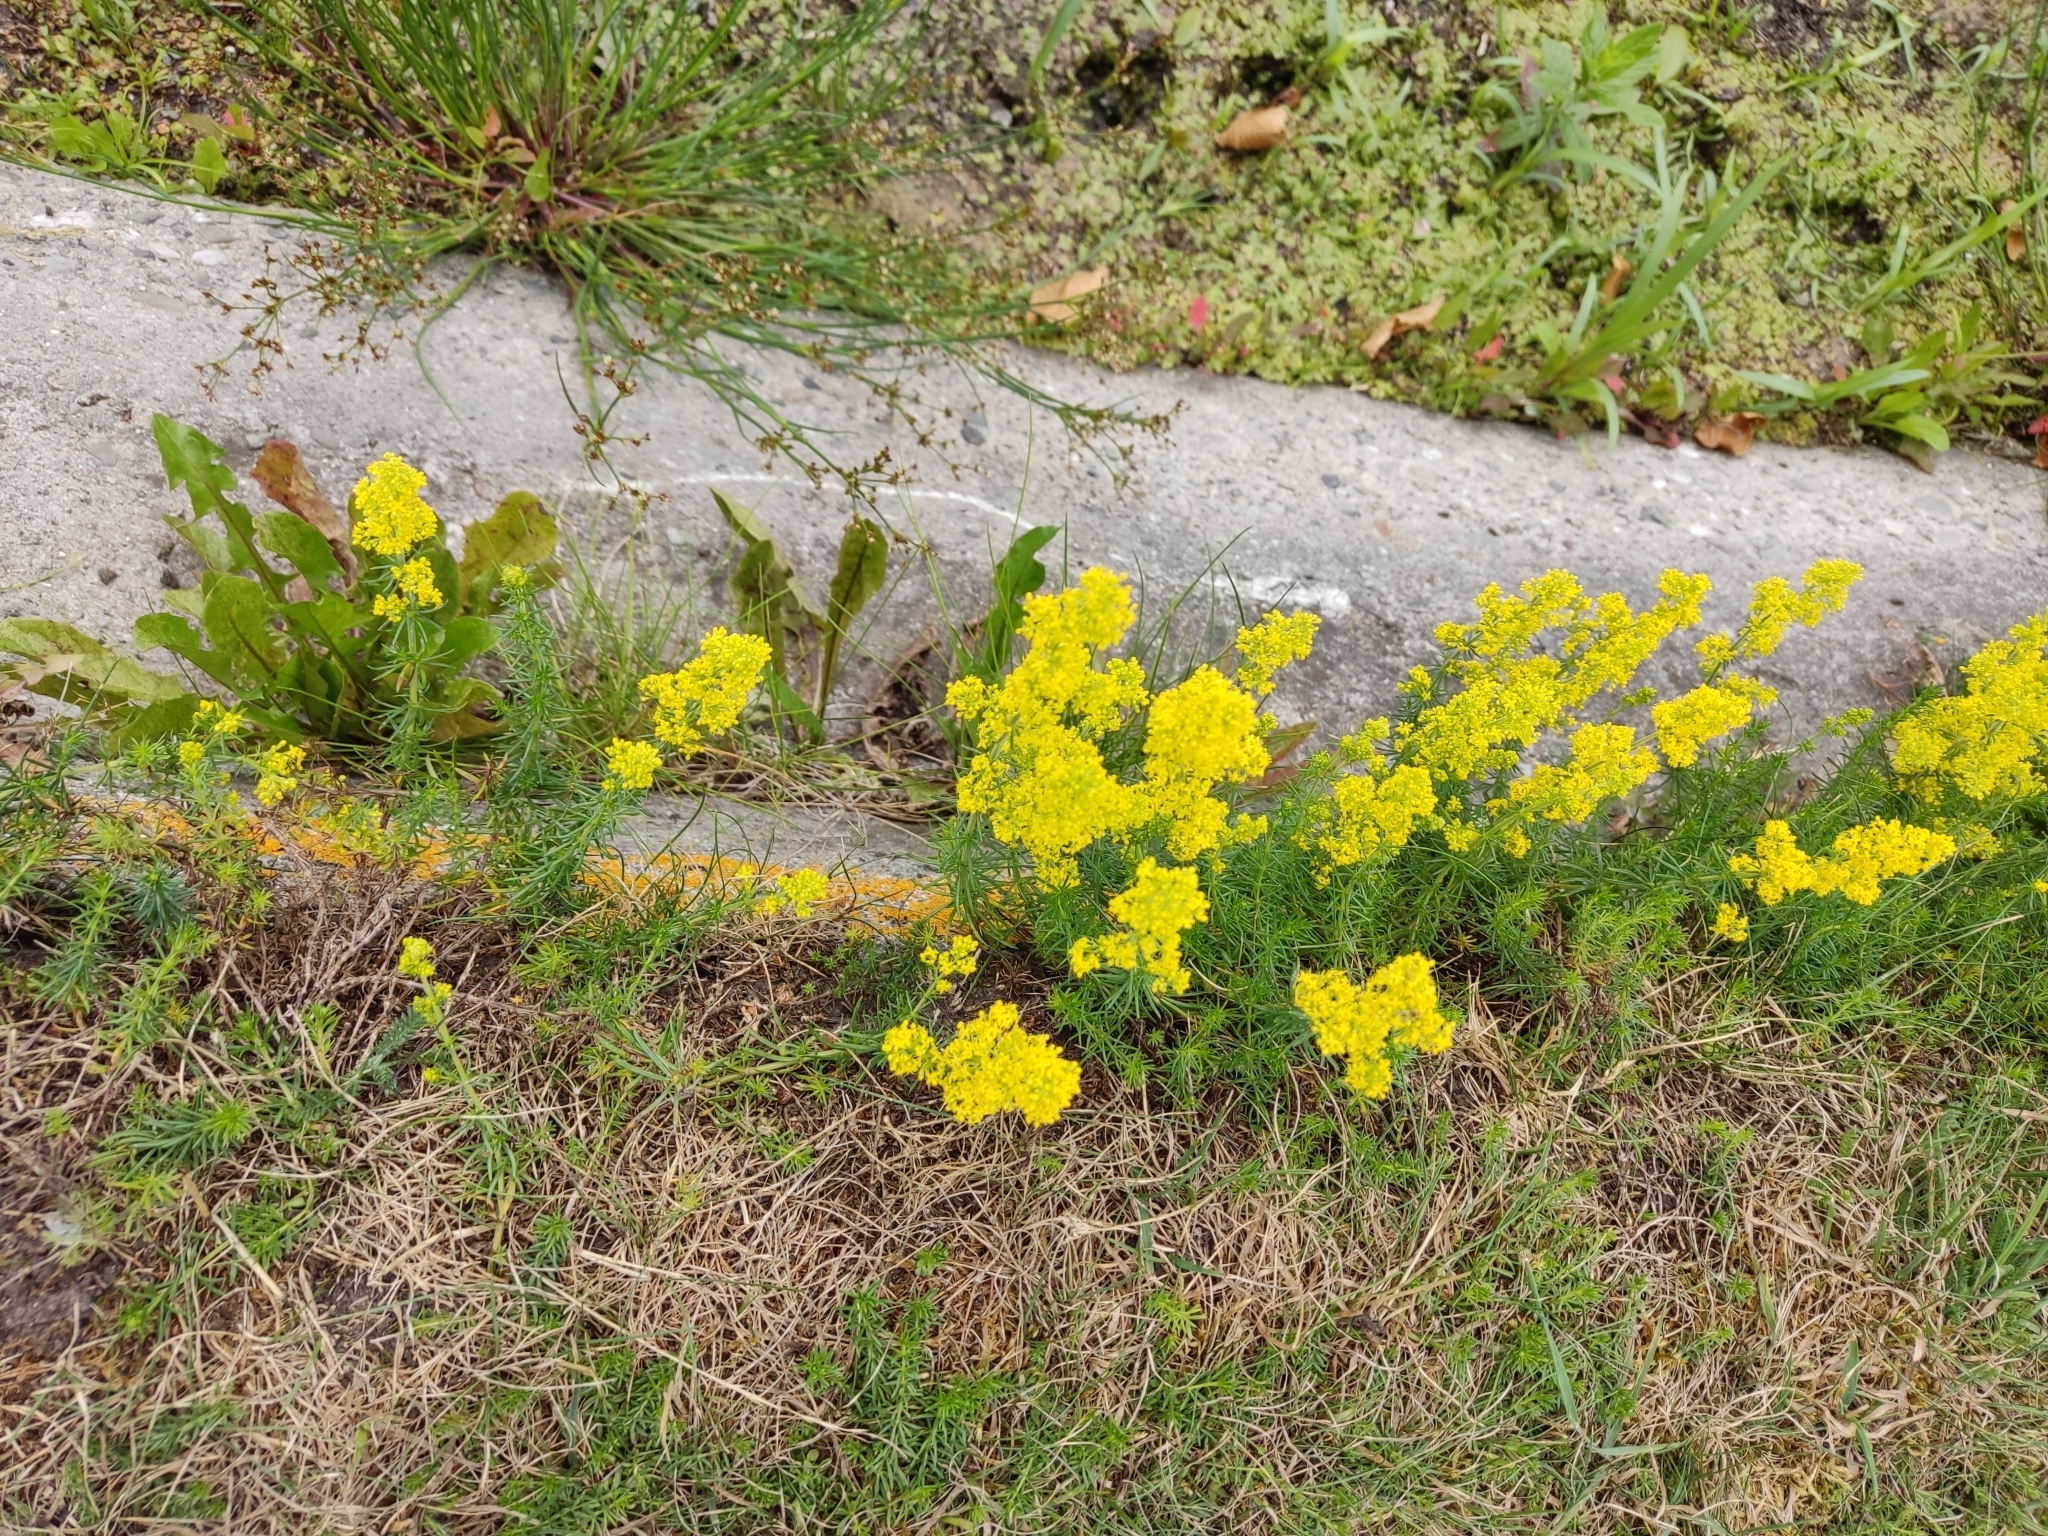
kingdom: Plantae
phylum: Tracheophyta
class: Magnoliopsida
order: Gentianales
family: Rubiaceae
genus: Galium
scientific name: Galium verum
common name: Lady's bedstraw
